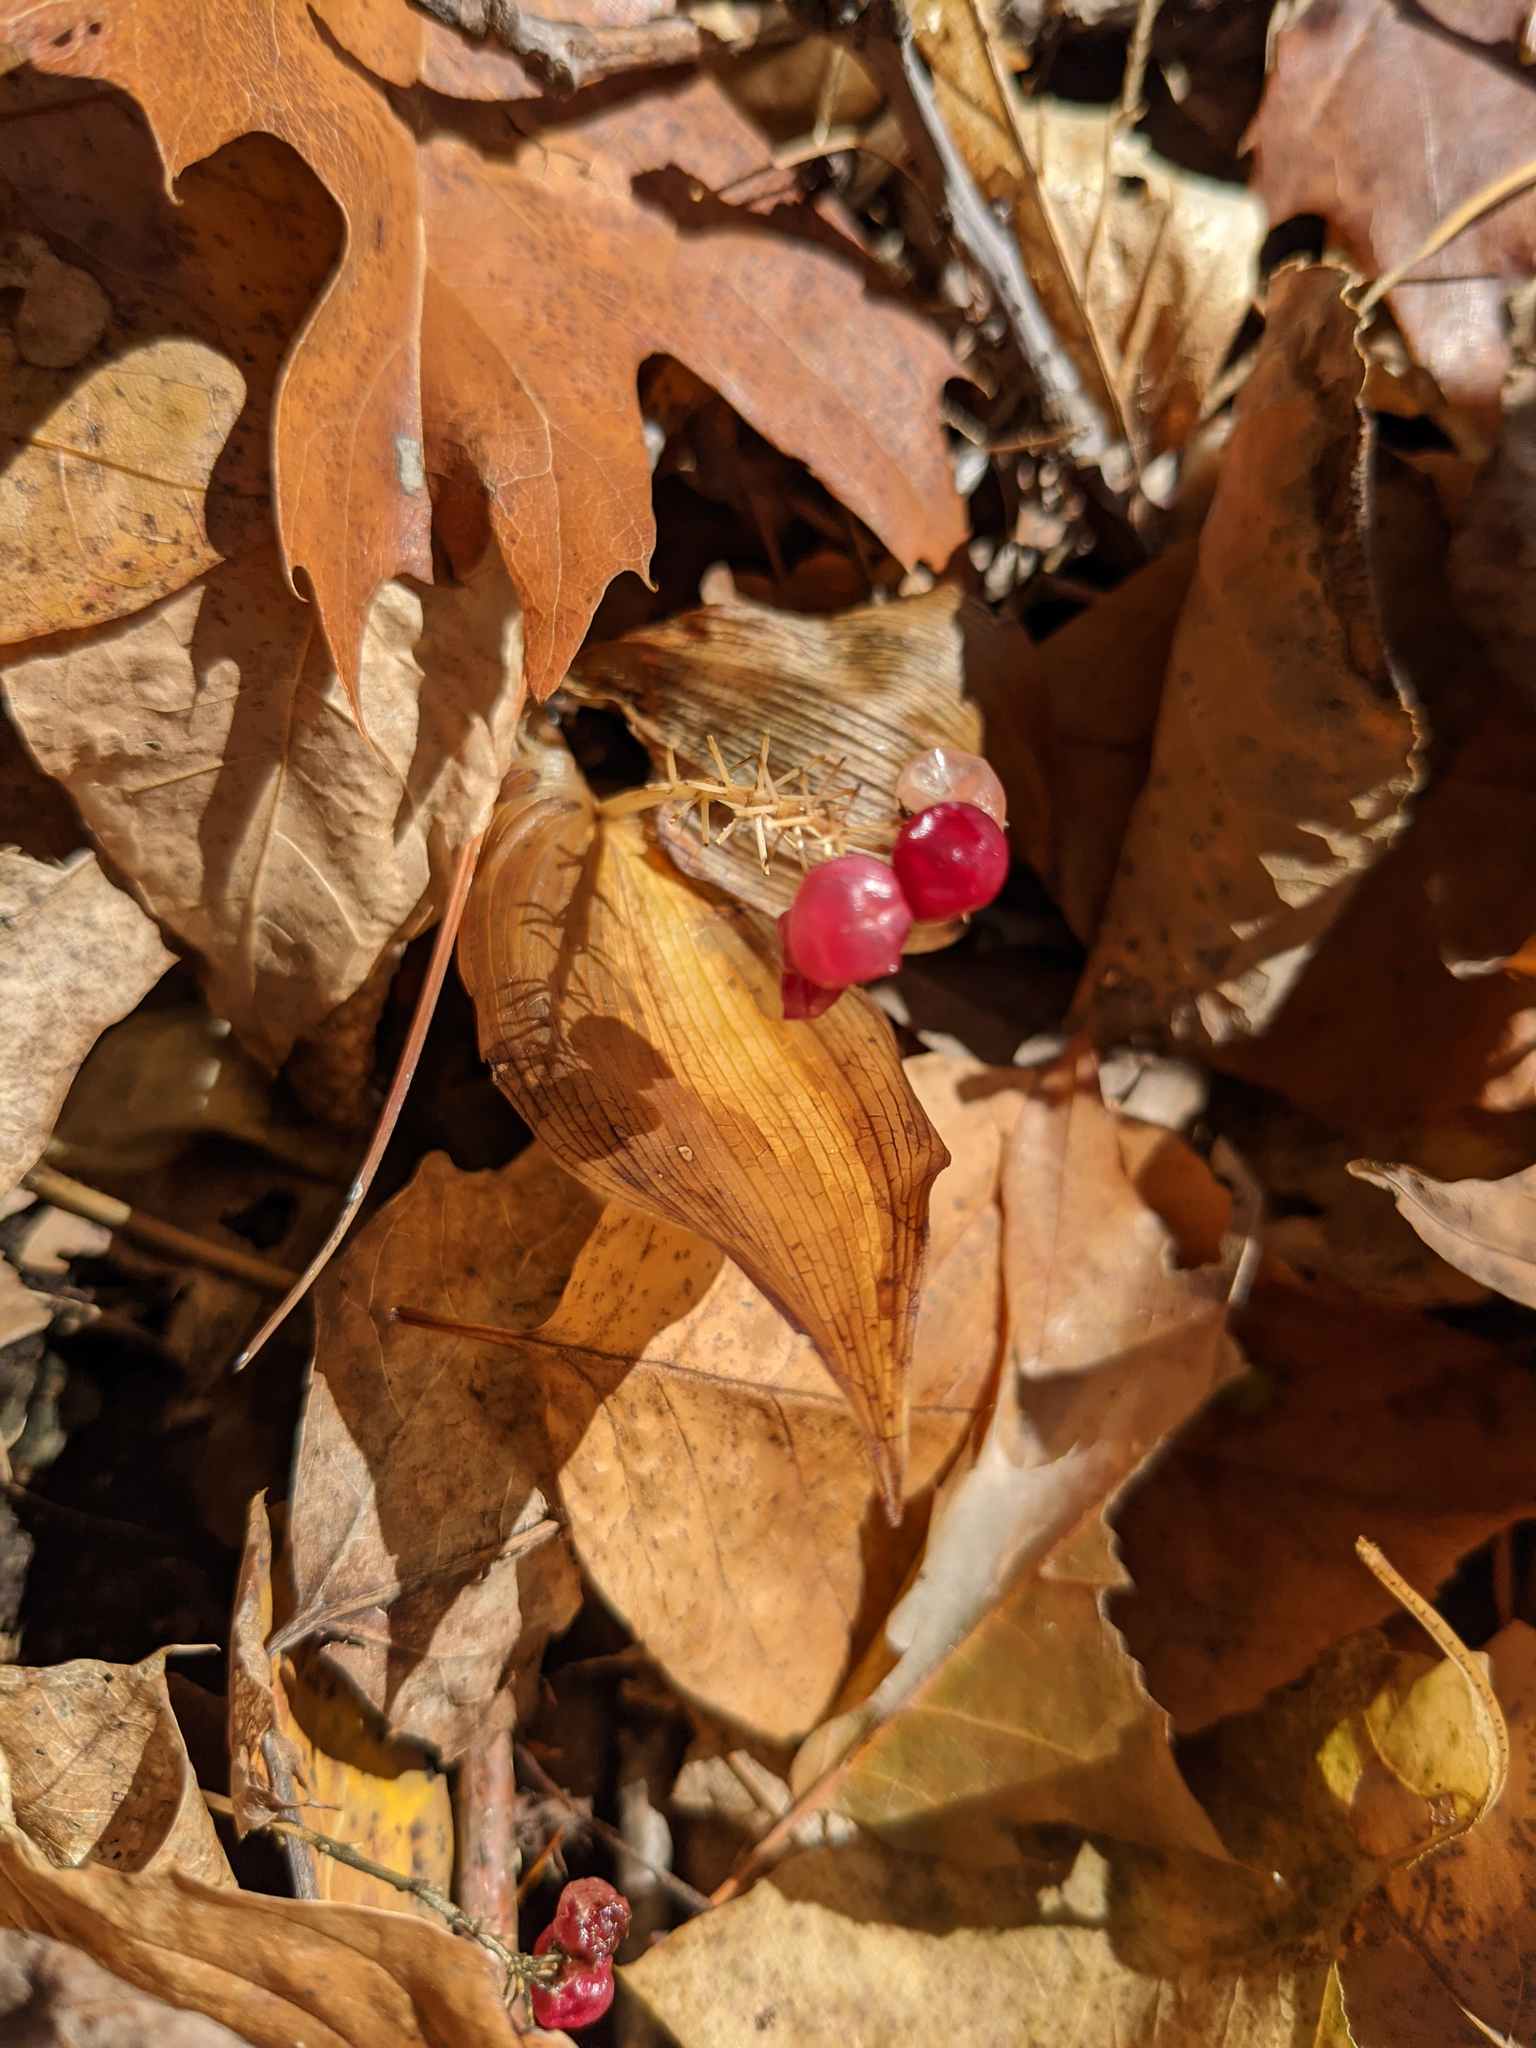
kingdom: Plantae
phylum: Tracheophyta
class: Liliopsida
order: Asparagales
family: Asparagaceae
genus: Maianthemum
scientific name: Maianthemum canadense
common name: False lily-of-the-valley
